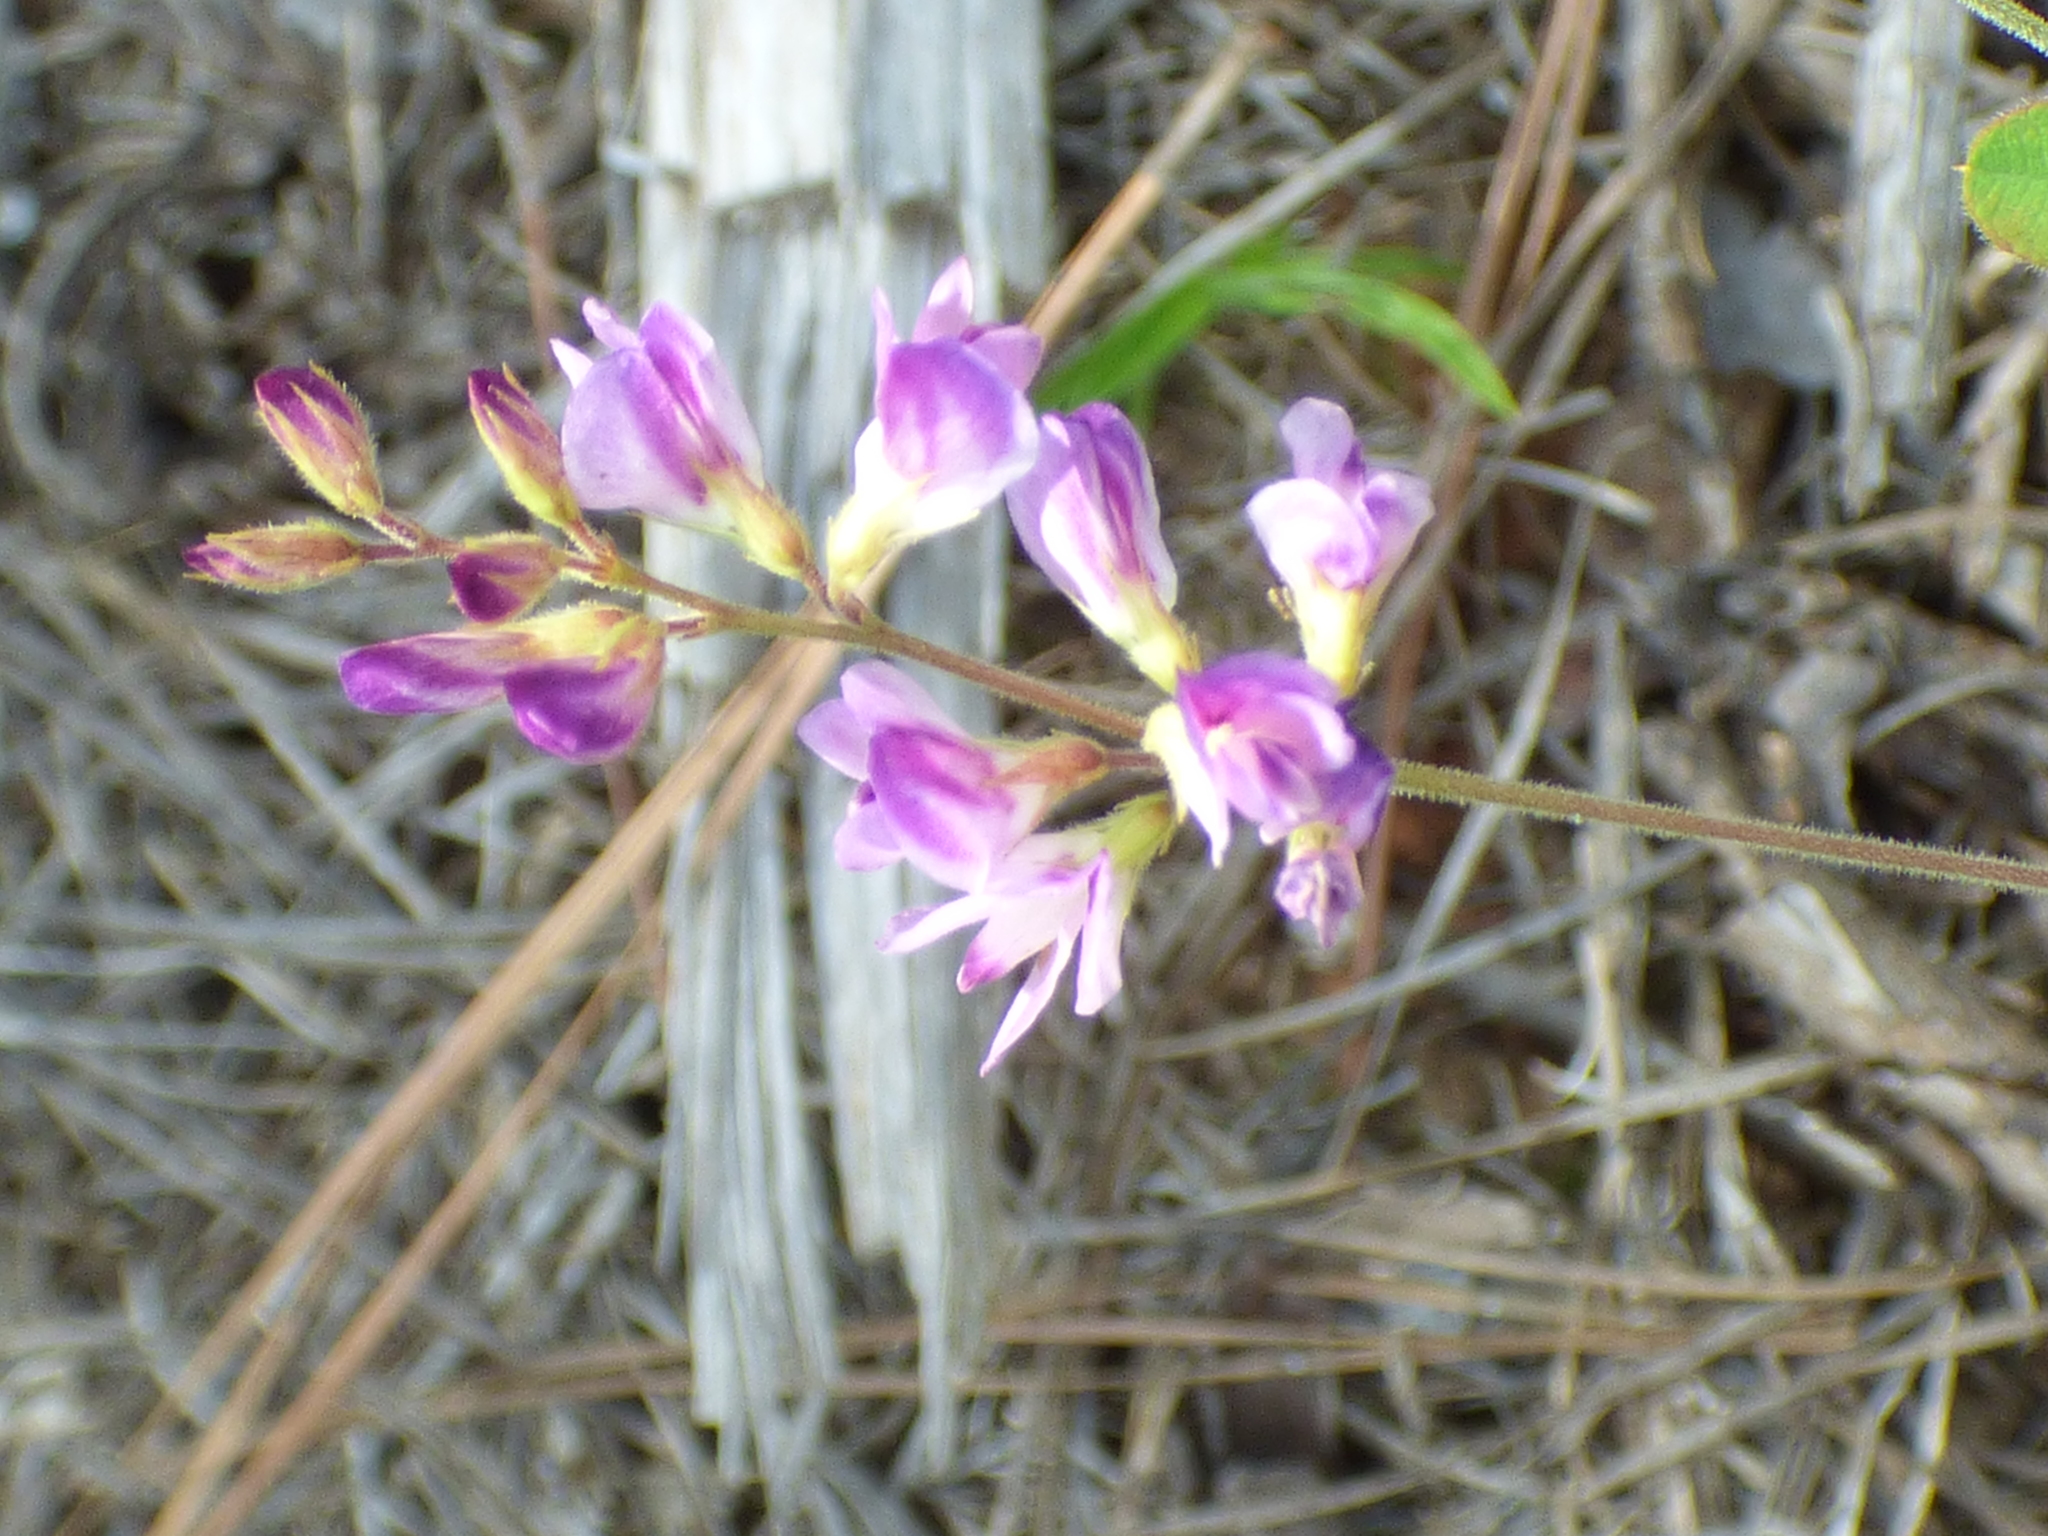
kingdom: Plantae
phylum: Tracheophyta
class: Magnoliopsida
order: Fabales
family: Fabaceae
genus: Lespedeza
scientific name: Lespedeza procumbens
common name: Downy trailing bush-clover
